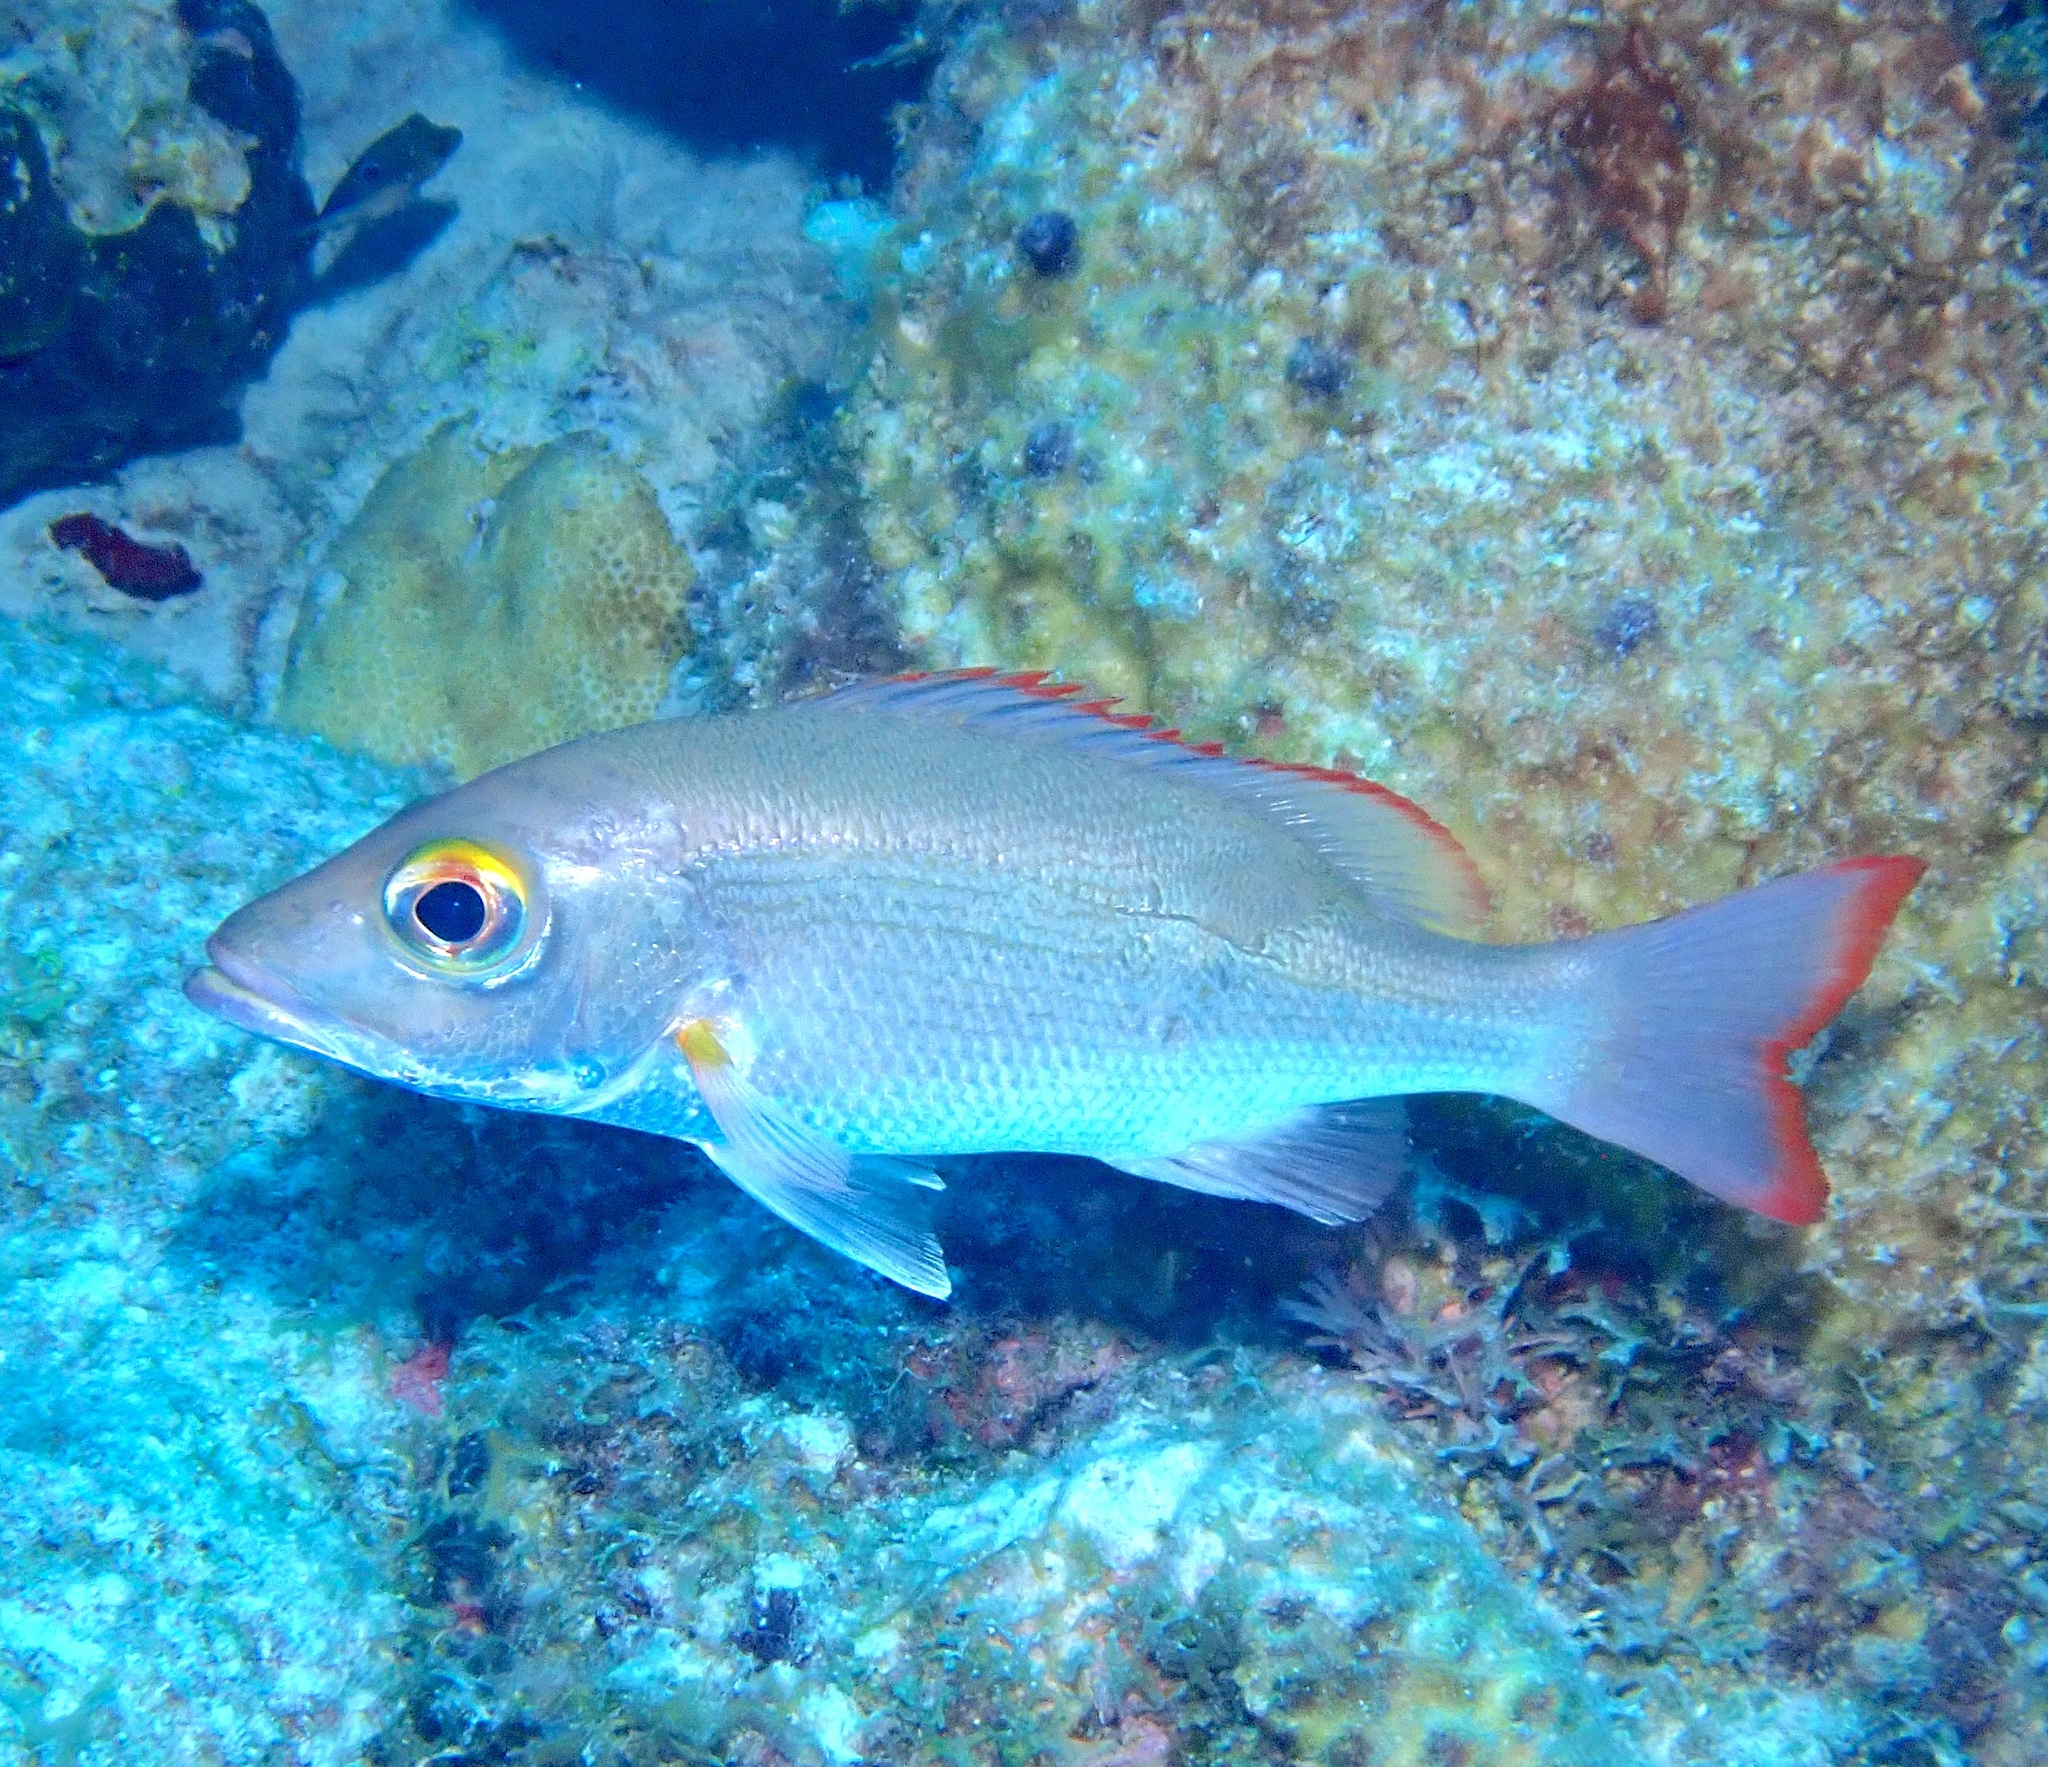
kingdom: Animalia
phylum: Chordata
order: Perciformes
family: Lutjanidae
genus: Lutjanus
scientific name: Lutjanus mahogoni
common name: Spot snapper
